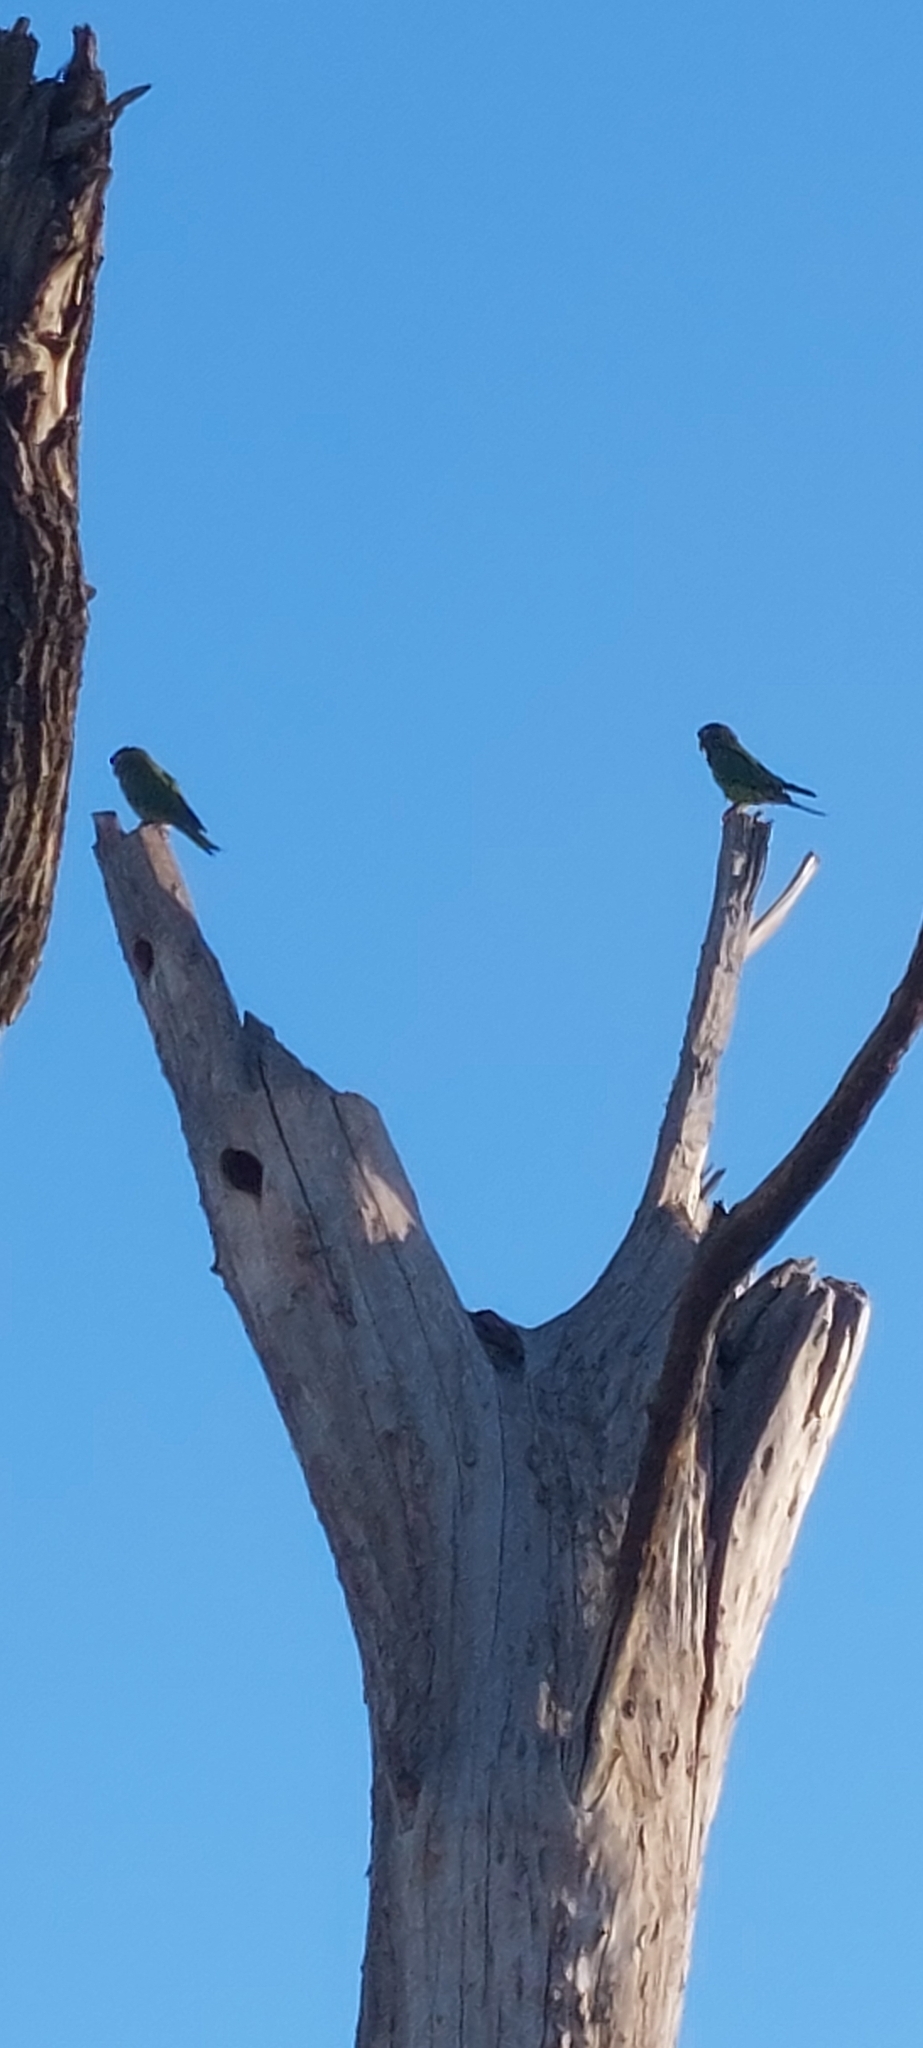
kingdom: Animalia
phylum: Chordata
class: Aves
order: Psittaciformes
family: Psittacidae
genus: Aratinga
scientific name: Aratinga acuticaudata
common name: Blue-crowned parakeet
